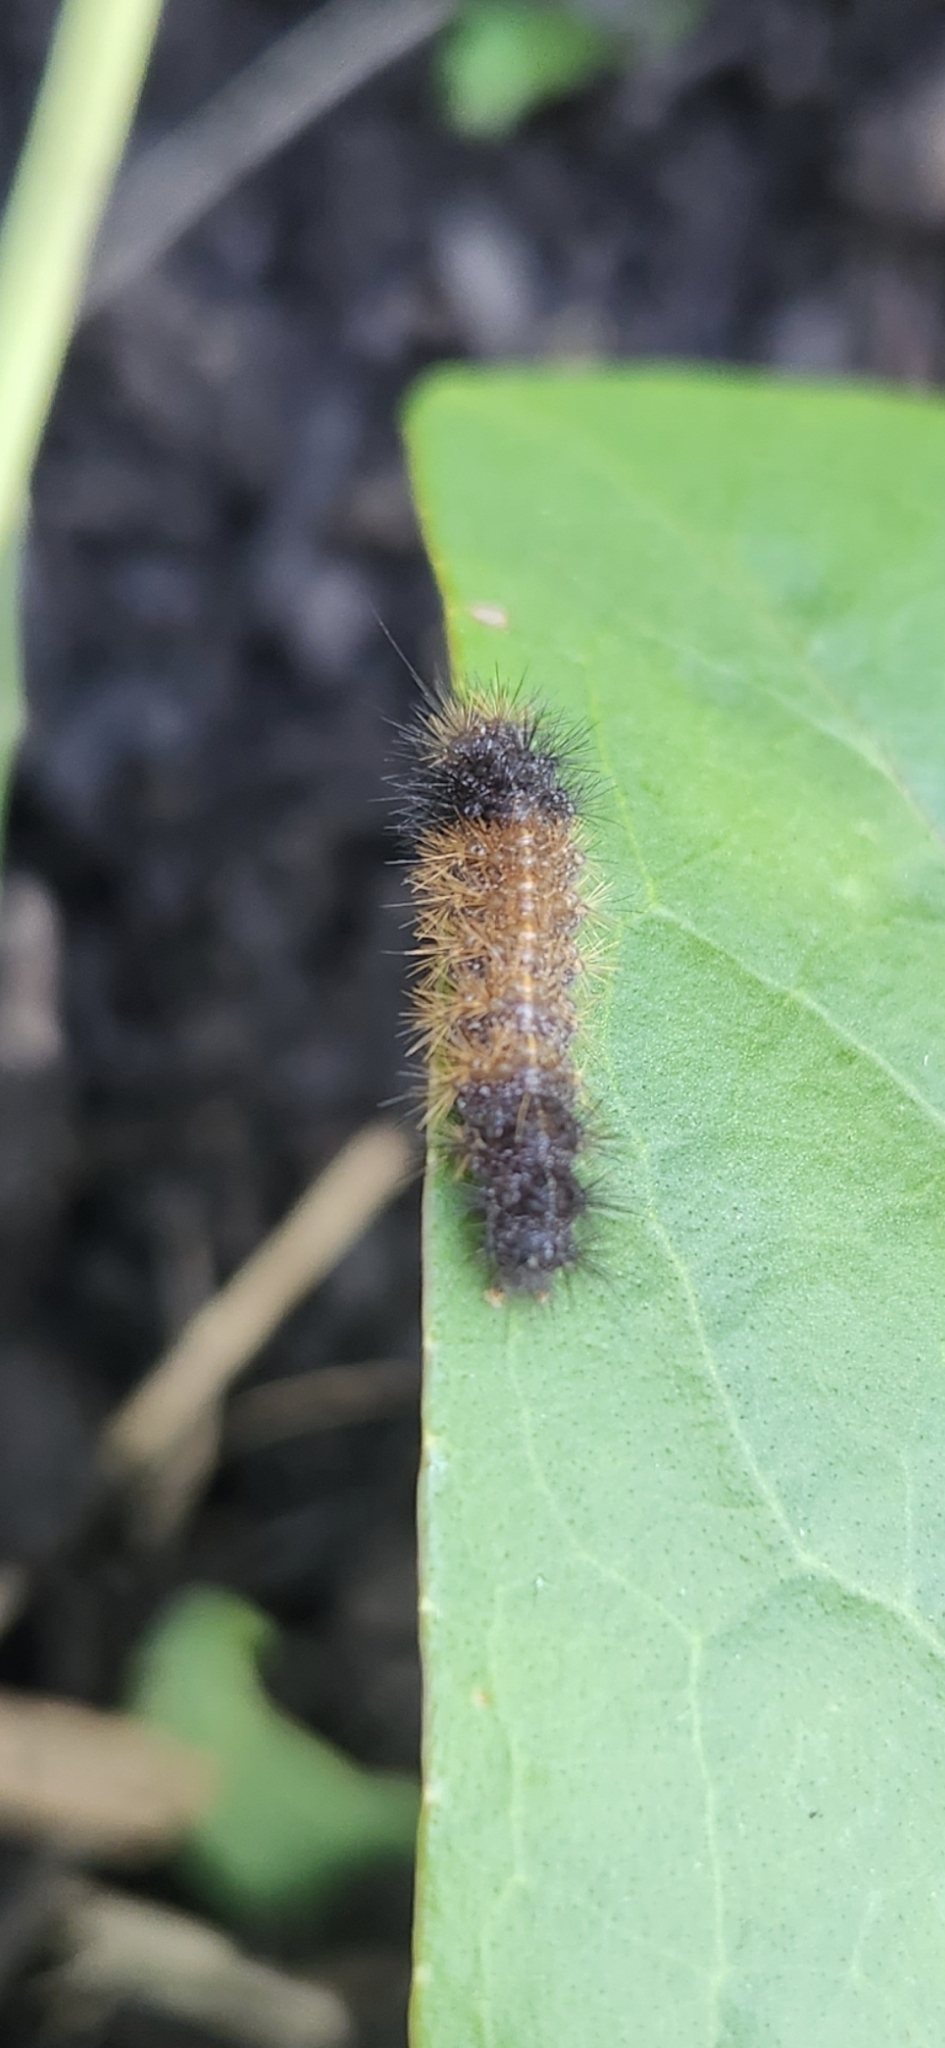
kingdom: Animalia
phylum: Arthropoda
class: Insecta
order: Lepidoptera
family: Erebidae
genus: Pyrrharctia
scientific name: Pyrrharctia isabella
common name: Isabella tiger moth
